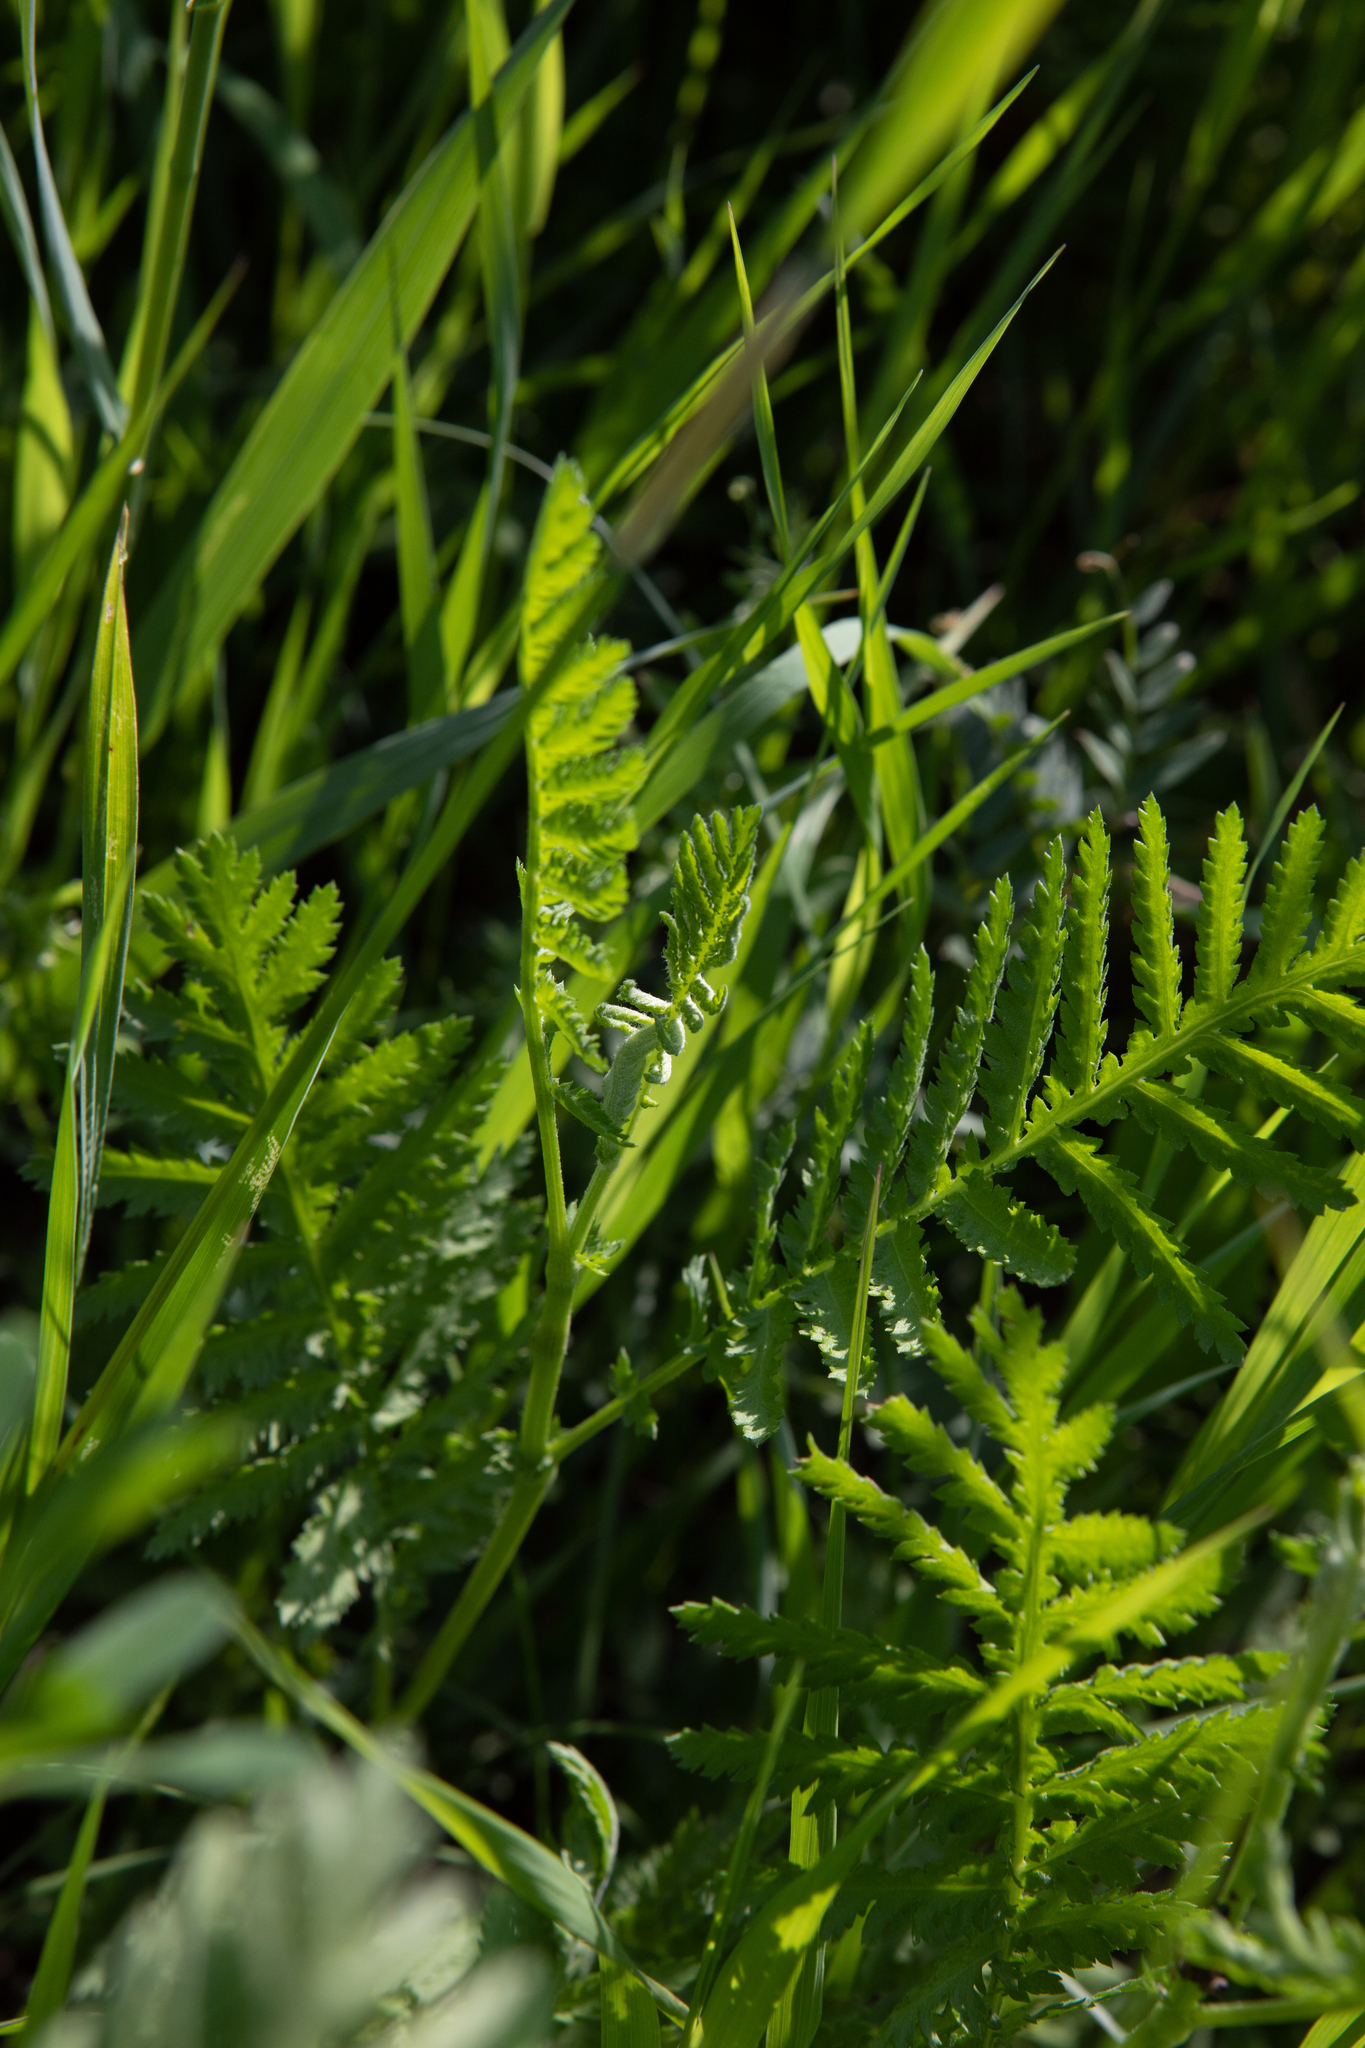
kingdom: Plantae
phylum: Tracheophyta
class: Magnoliopsida
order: Asterales
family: Asteraceae
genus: Tanacetum
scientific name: Tanacetum vulgare
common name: Common tansy
